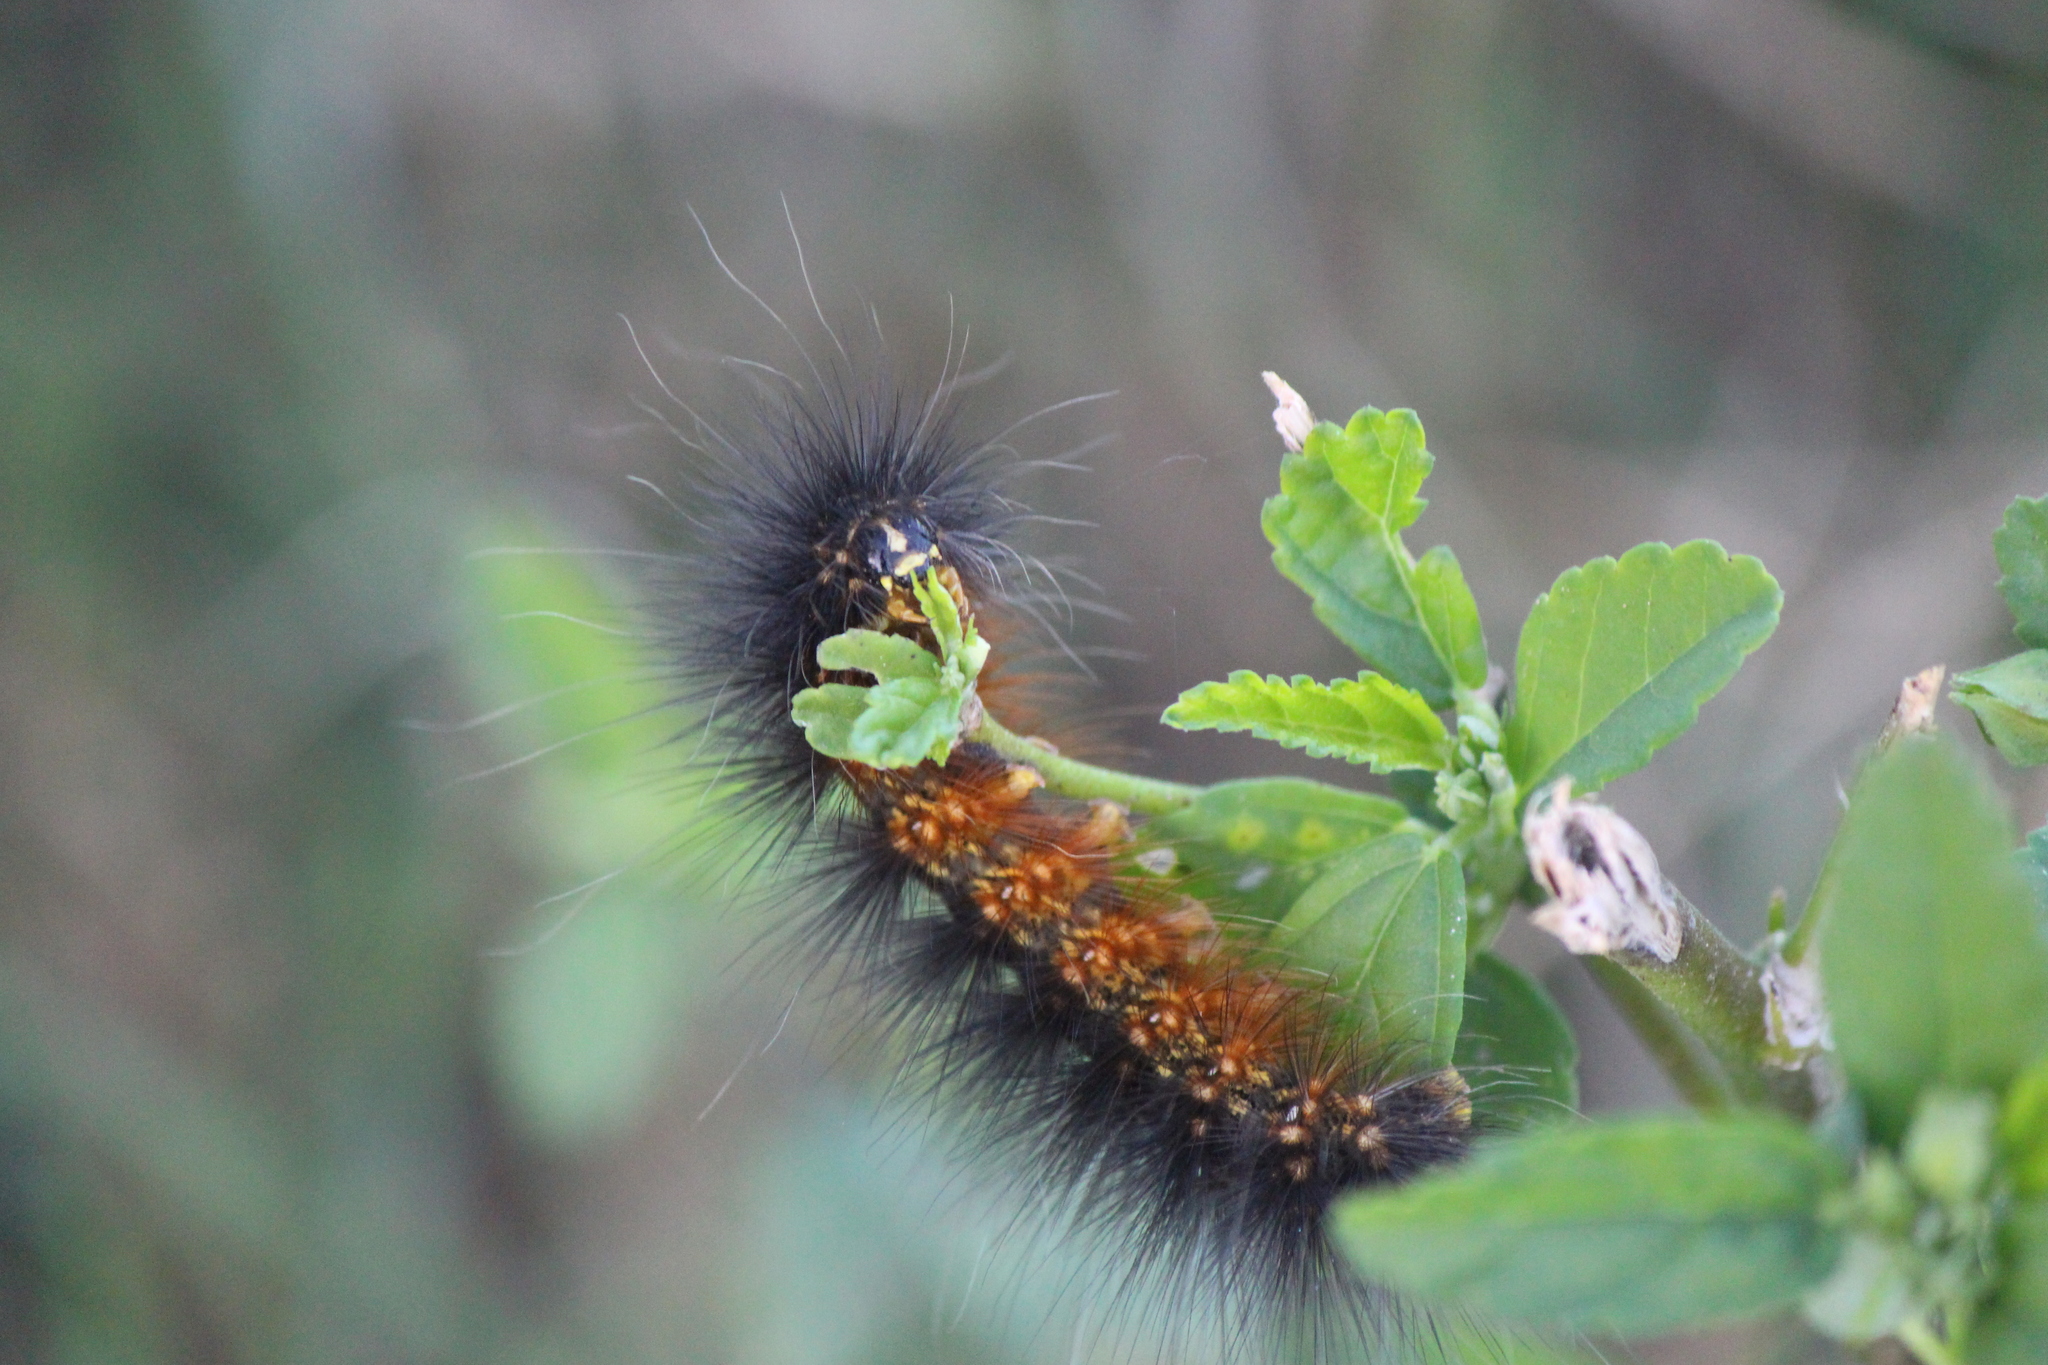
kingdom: Animalia
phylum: Arthropoda
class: Insecta
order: Lepidoptera
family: Erebidae
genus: Estigmene
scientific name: Estigmene acrea
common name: Salt marsh moth
